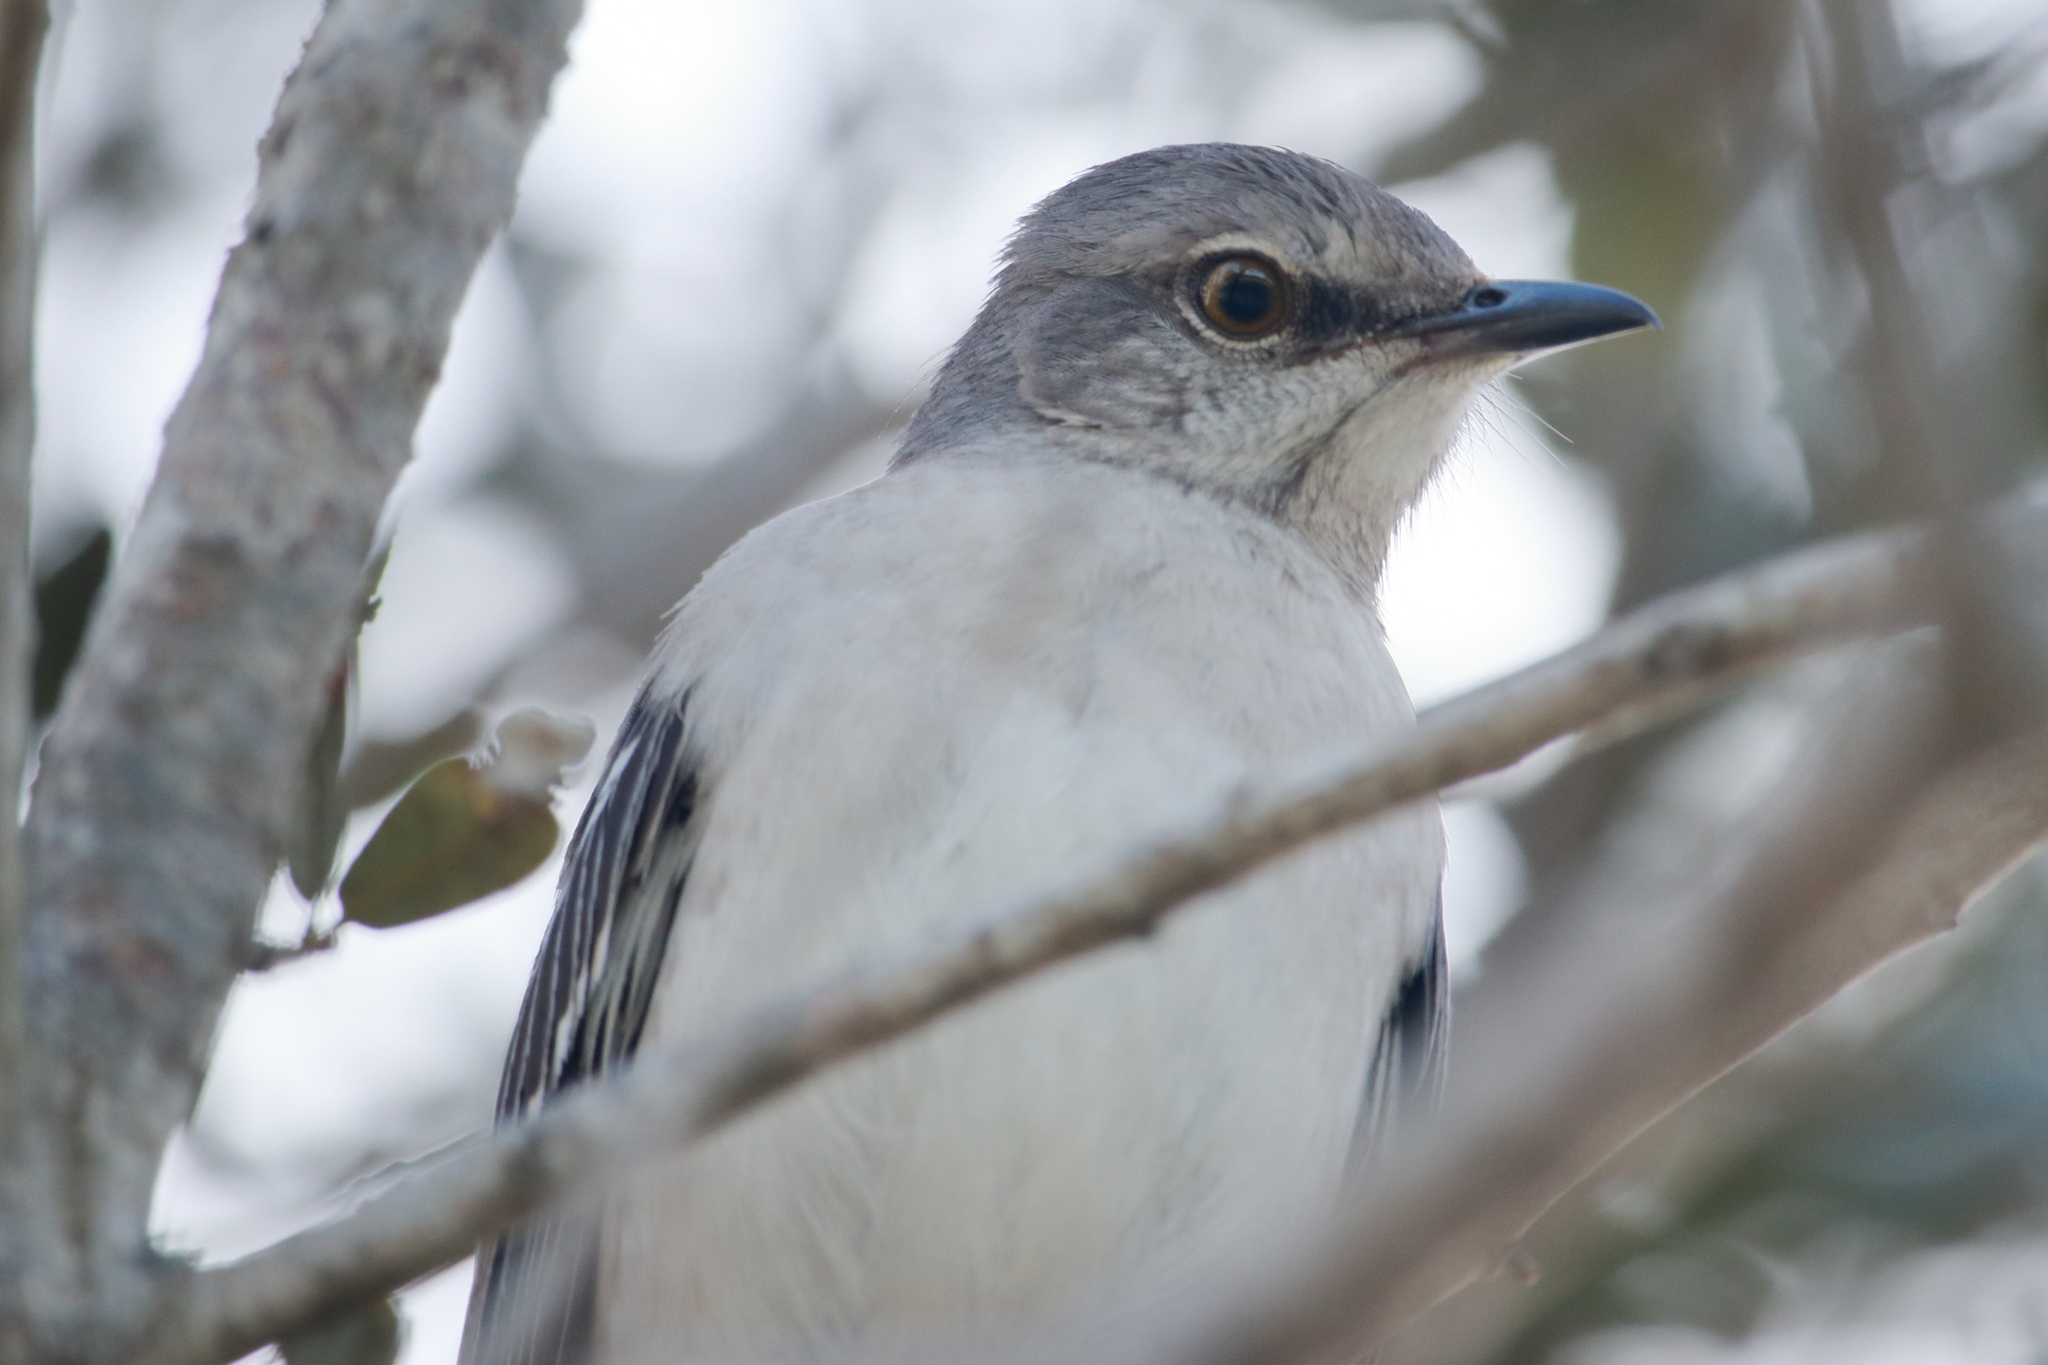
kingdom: Animalia
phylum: Chordata
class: Aves
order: Passeriformes
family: Mimidae
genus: Mimus
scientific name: Mimus polyglottos
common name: Northern mockingbird
